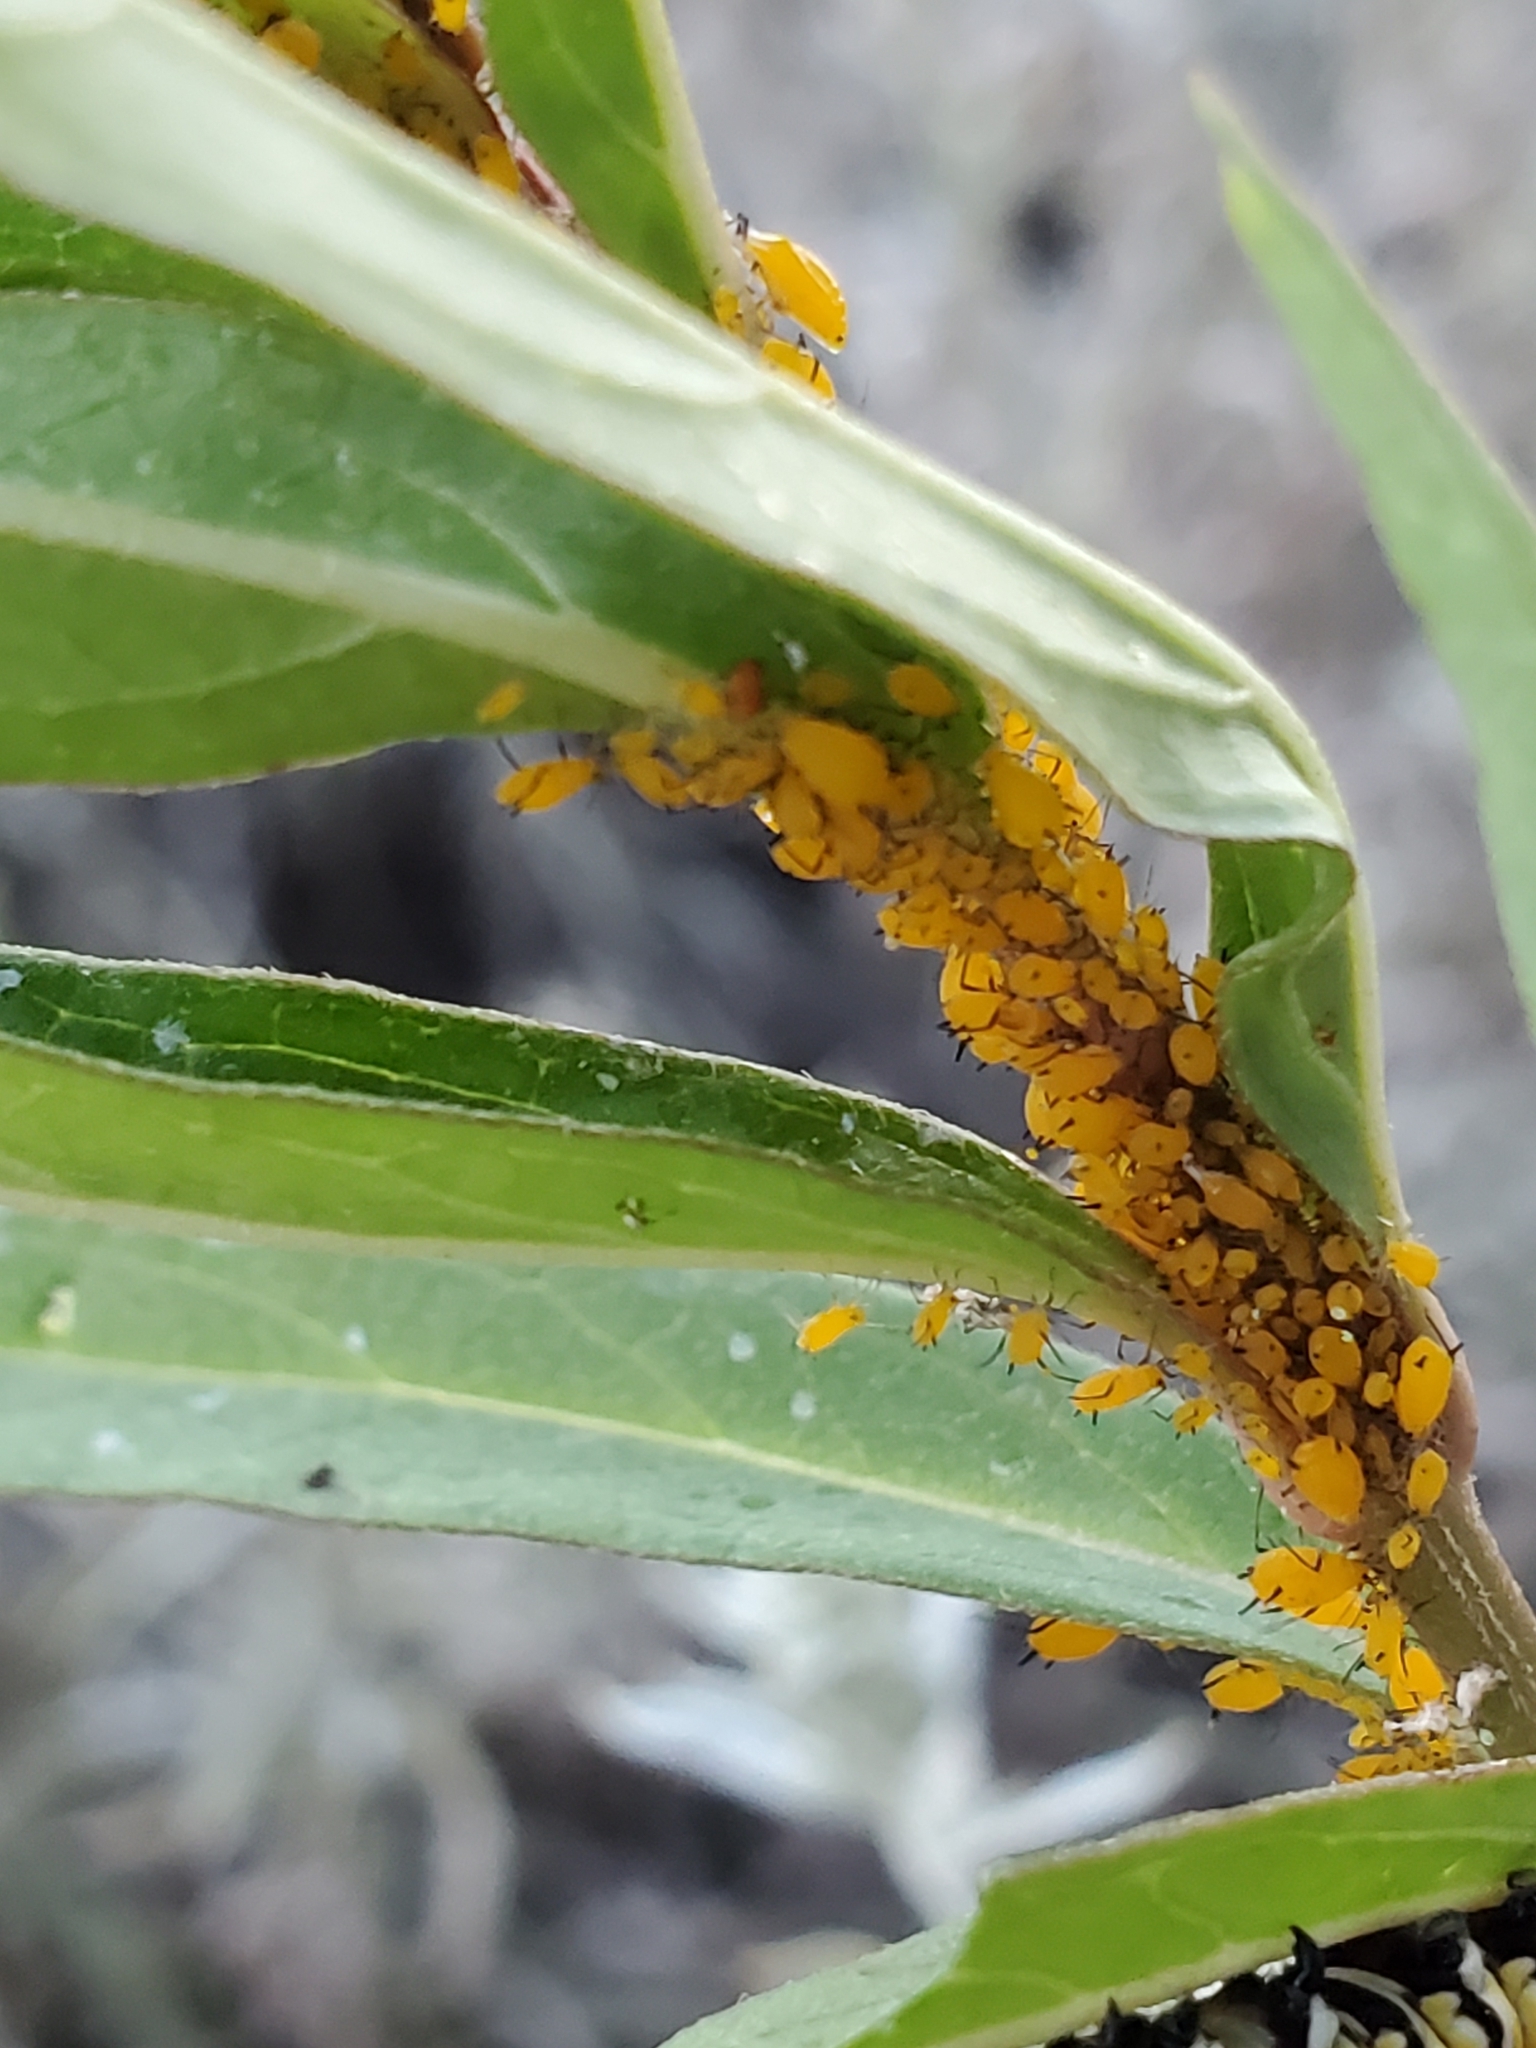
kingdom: Animalia
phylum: Arthropoda
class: Insecta
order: Hemiptera
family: Aphididae
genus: Aphis
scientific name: Aphis nerii
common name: Oleander aphid
